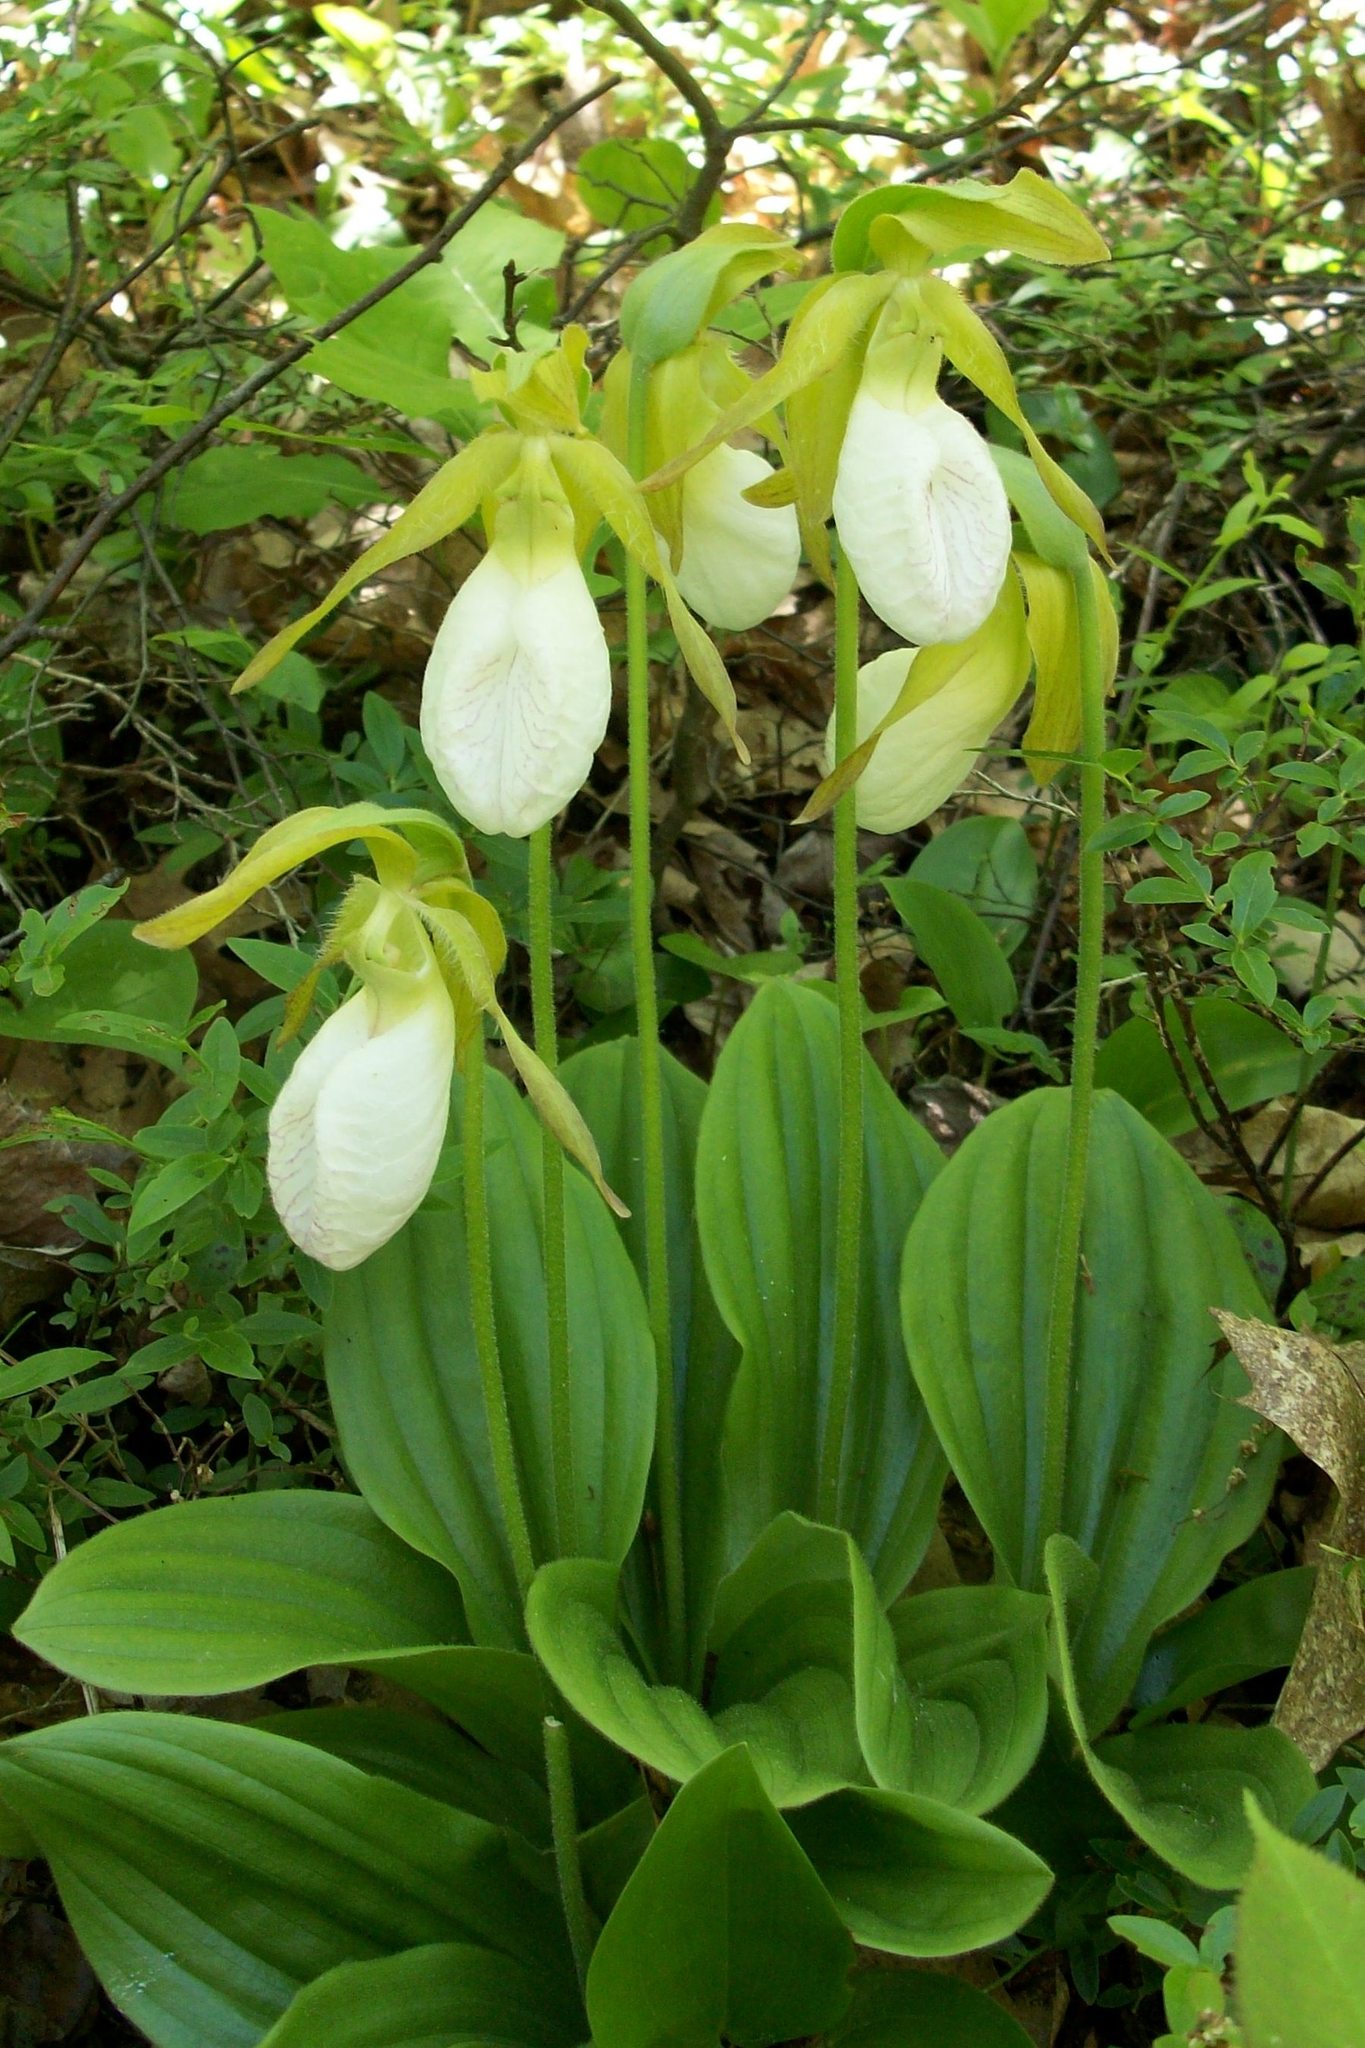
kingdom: Plantae
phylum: Tracheophyta
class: Liliopsida
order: Asparagales
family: Orchidaceae
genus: Cypripedium
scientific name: Cypripedium acaule
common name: Pink lady's-slipper
